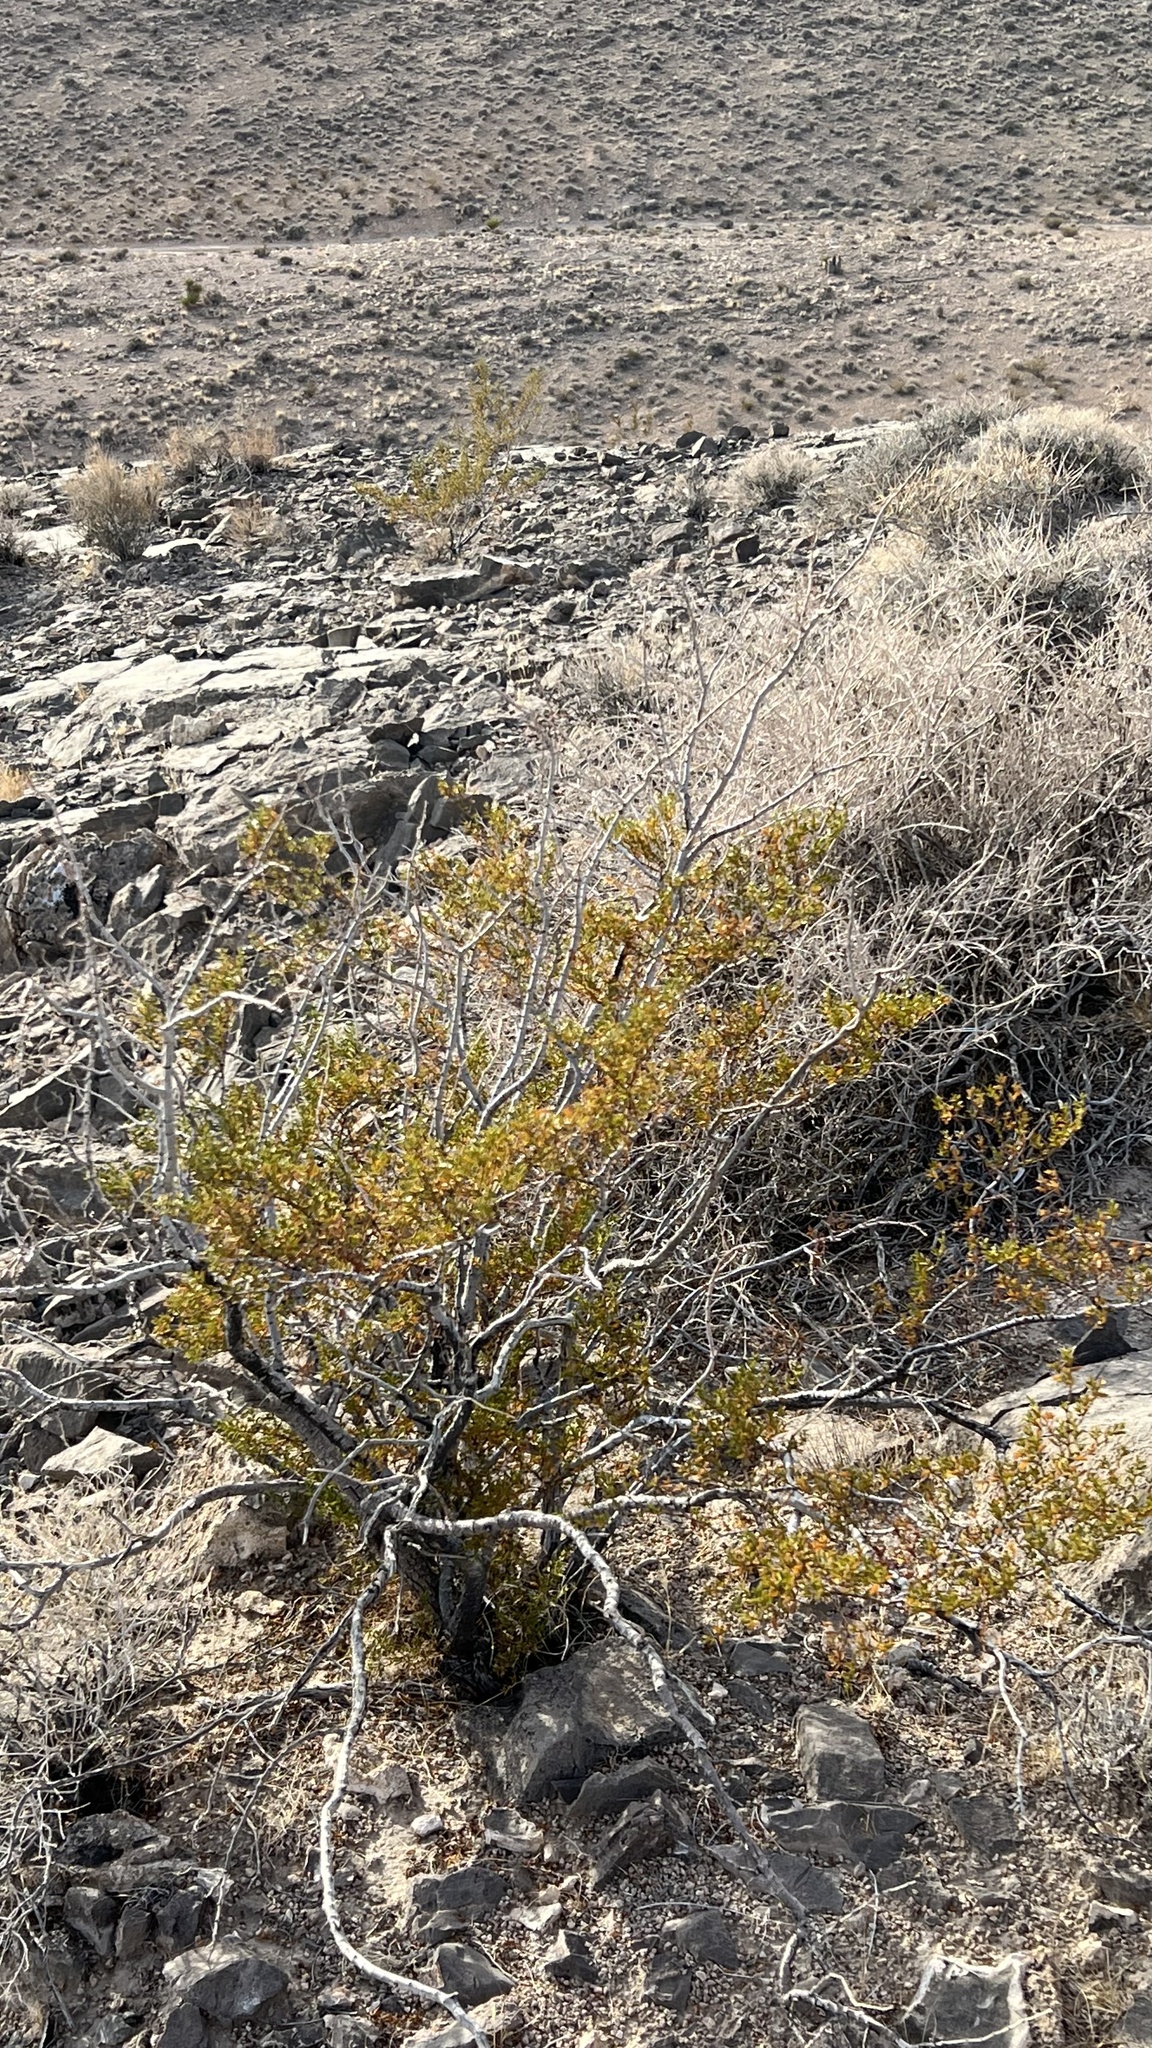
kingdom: Plantae
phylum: Tracheophyta
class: Magnoliopsida
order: Zygophyllales
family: Zygophyllaceae
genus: Larrea
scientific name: Larrea tridentata
